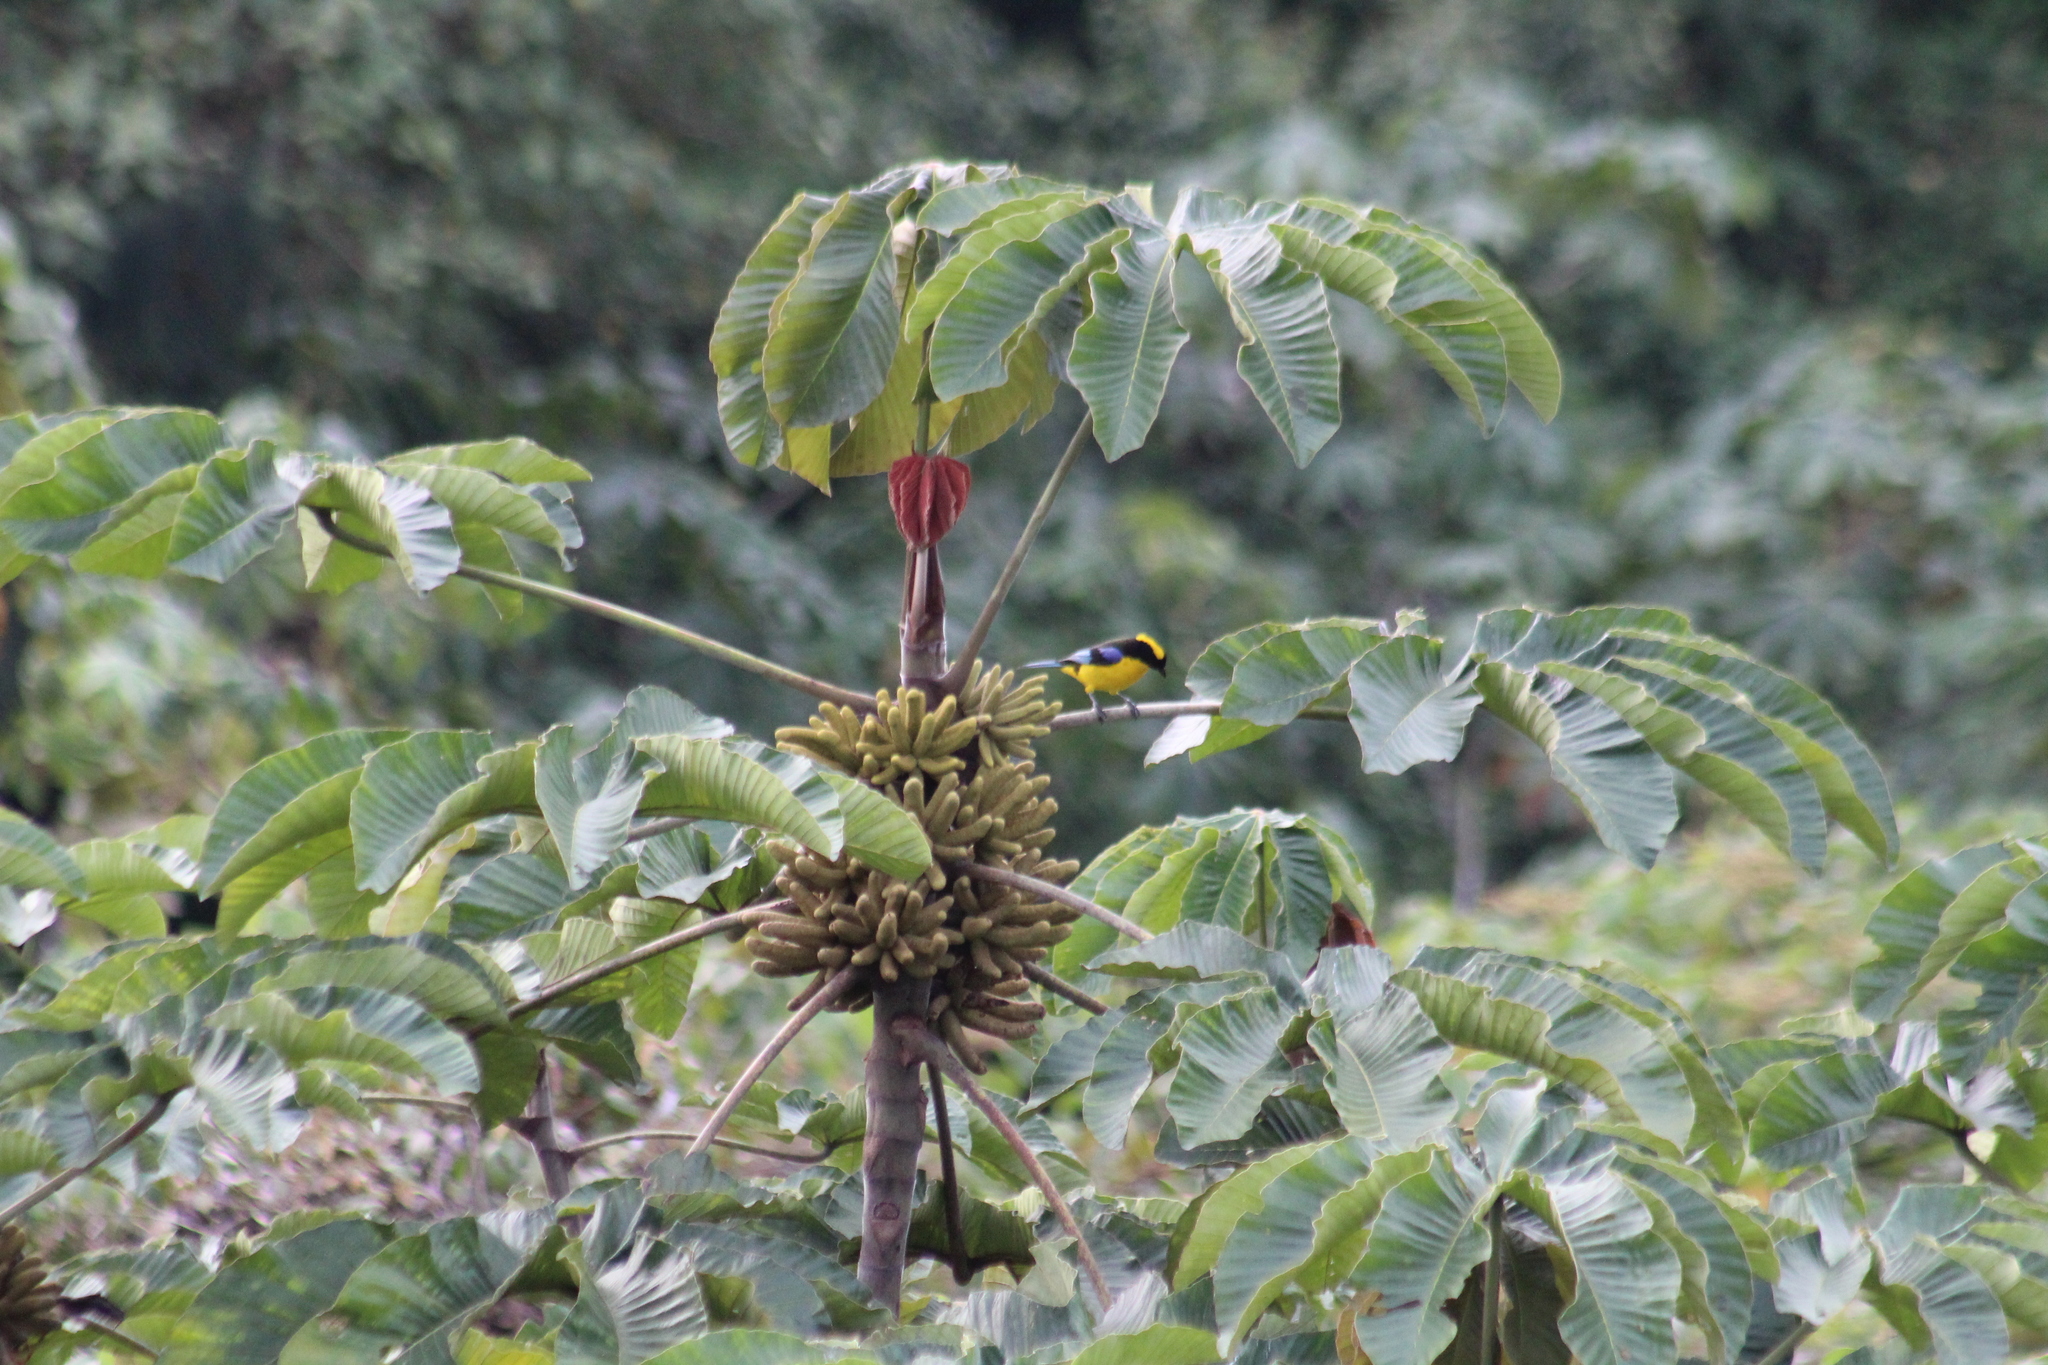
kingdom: Animalia
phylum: Chordata
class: Aves
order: Passeriformes
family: Thraupidae
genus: Anisognathus
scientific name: Anisognathus somptuosus
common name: Blue-winged mountain-tanager
